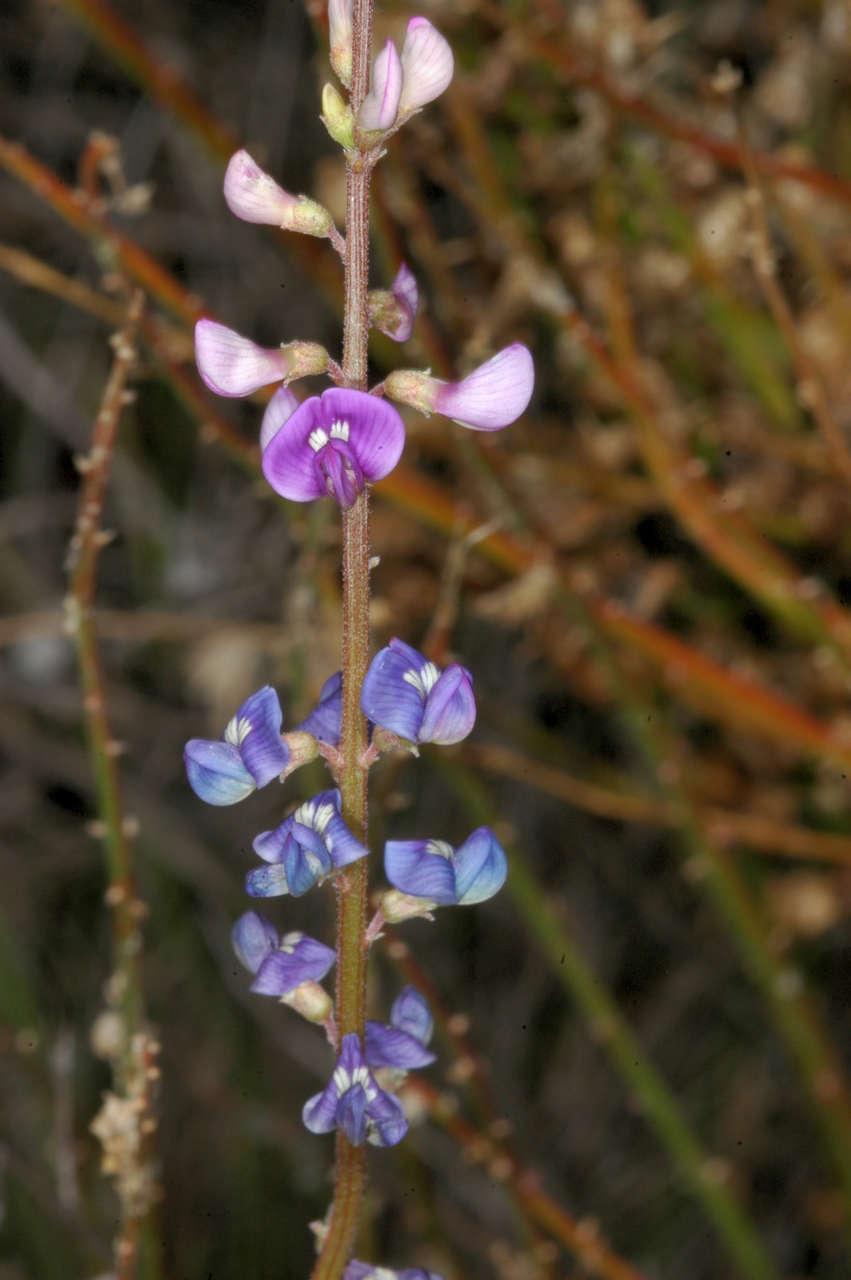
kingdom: Plantae
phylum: Tracheophyta
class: Magnoliopsida
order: Fabales
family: Fabaceae
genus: Swainsona
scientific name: Swainsona microphylla
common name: Small-leaf swainsona-pea
